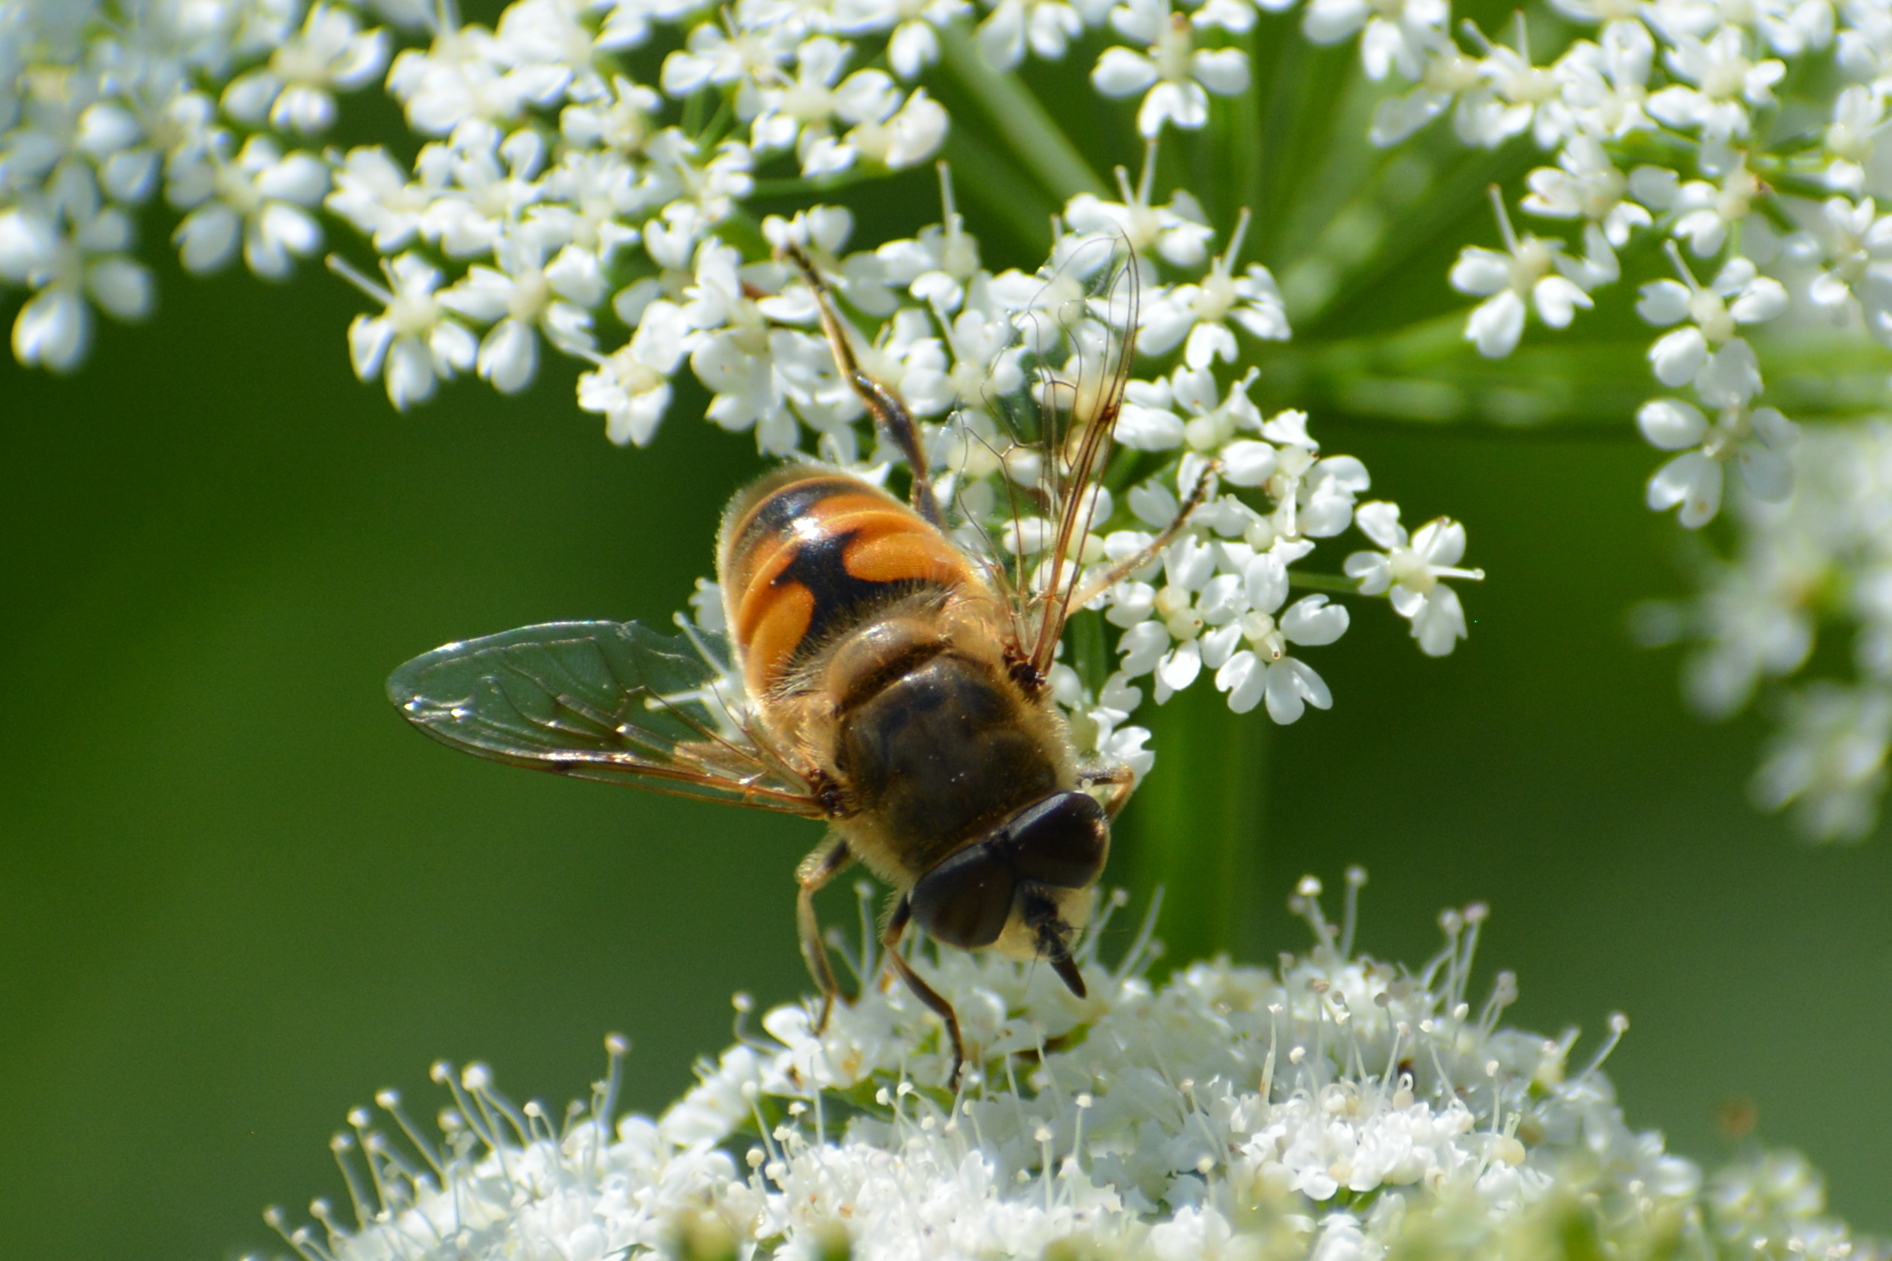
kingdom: Animalia
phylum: Arthropoda
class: Insecta
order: Diptera
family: Syrphidae
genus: Eristalis
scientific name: Eristalis tenax
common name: Drone fly
